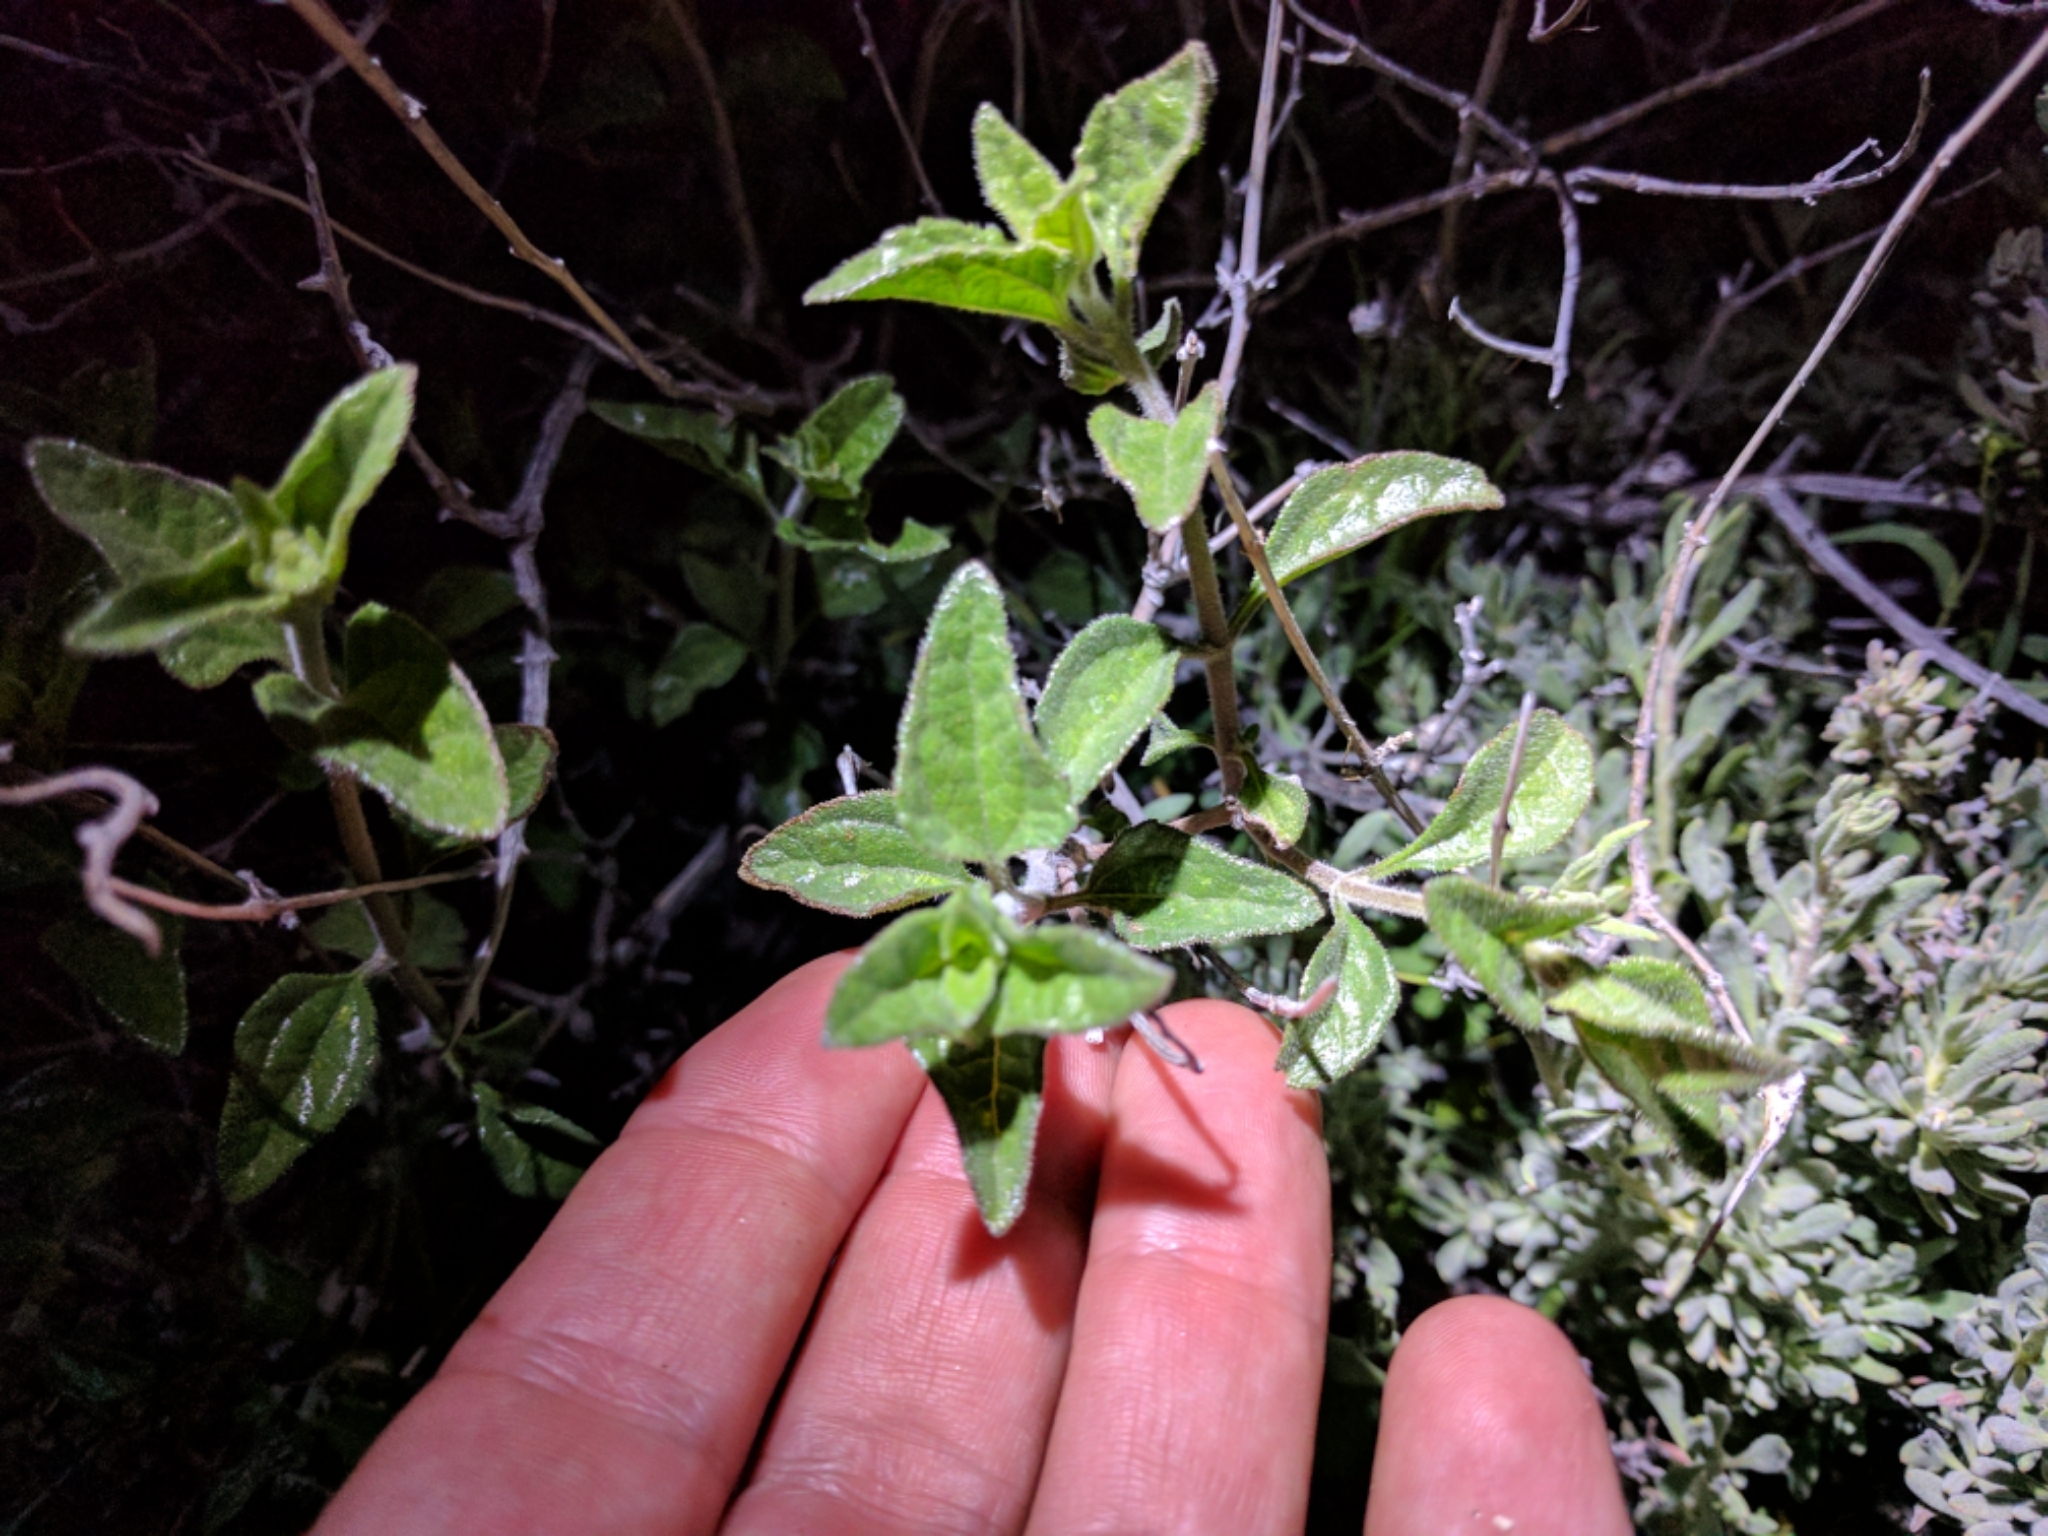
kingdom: Plantae
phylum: Tracheophyta
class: Magnoliopsida
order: Asterales
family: Asteraceae
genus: Bahiopsis
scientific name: Bahiopsis parishii
